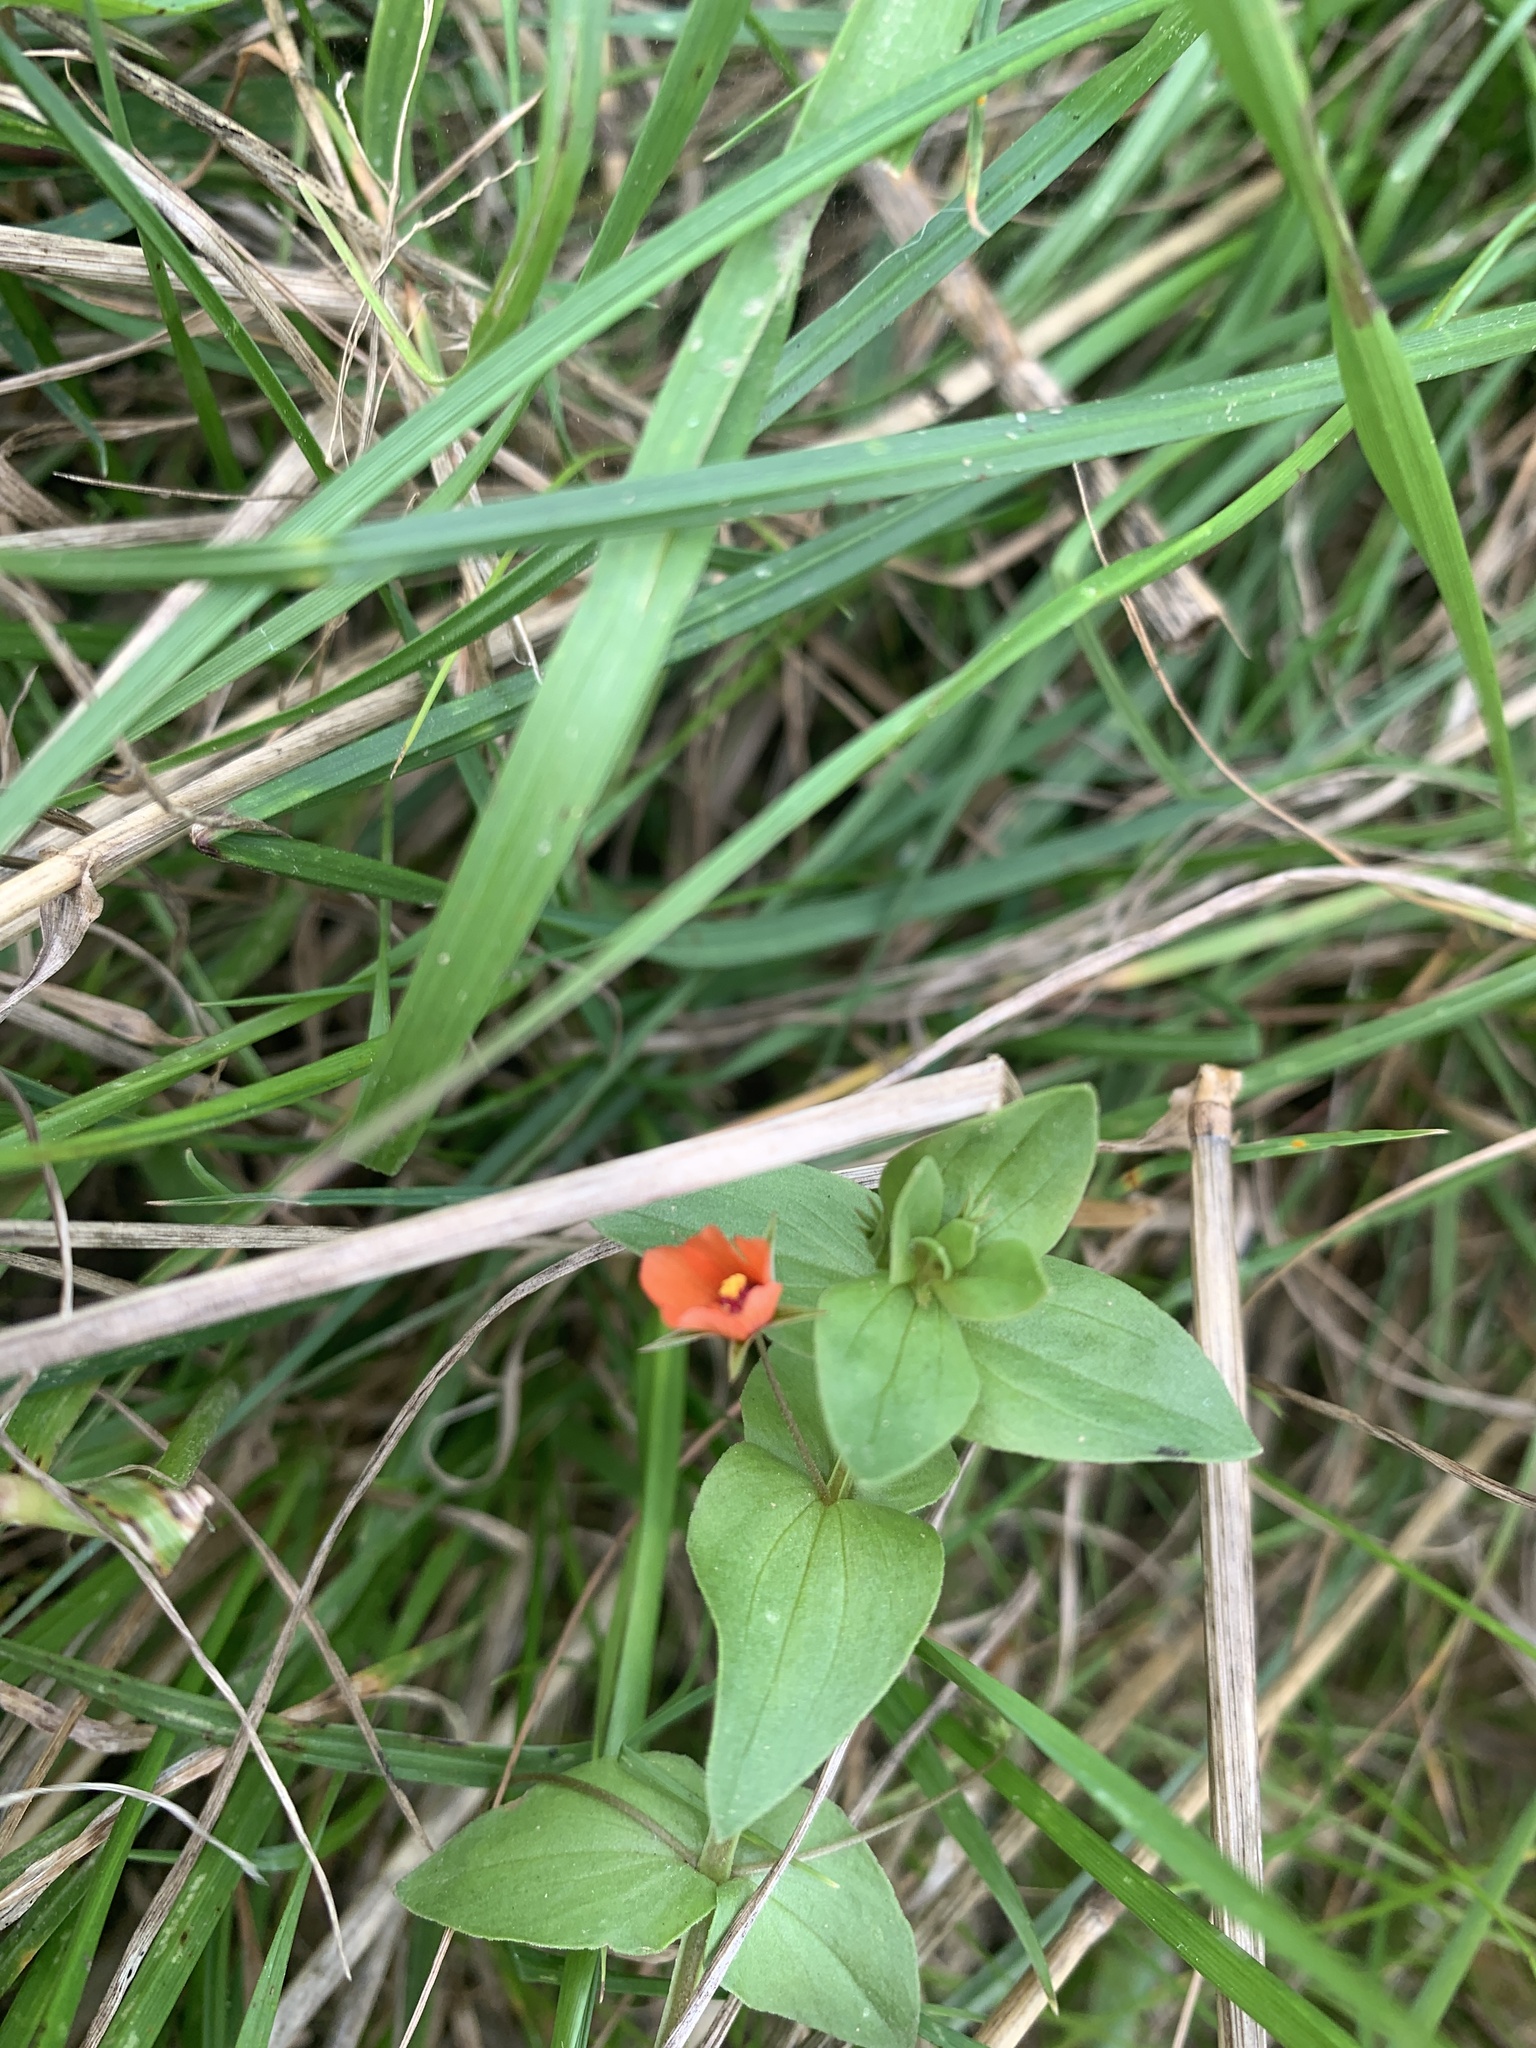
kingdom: Plantae
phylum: Tracheophyta
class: Magnoliopsida
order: Ericales
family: Primulaceae
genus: Lysimachia
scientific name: Lysimachia arvensis
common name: Scarlet pimpernel
